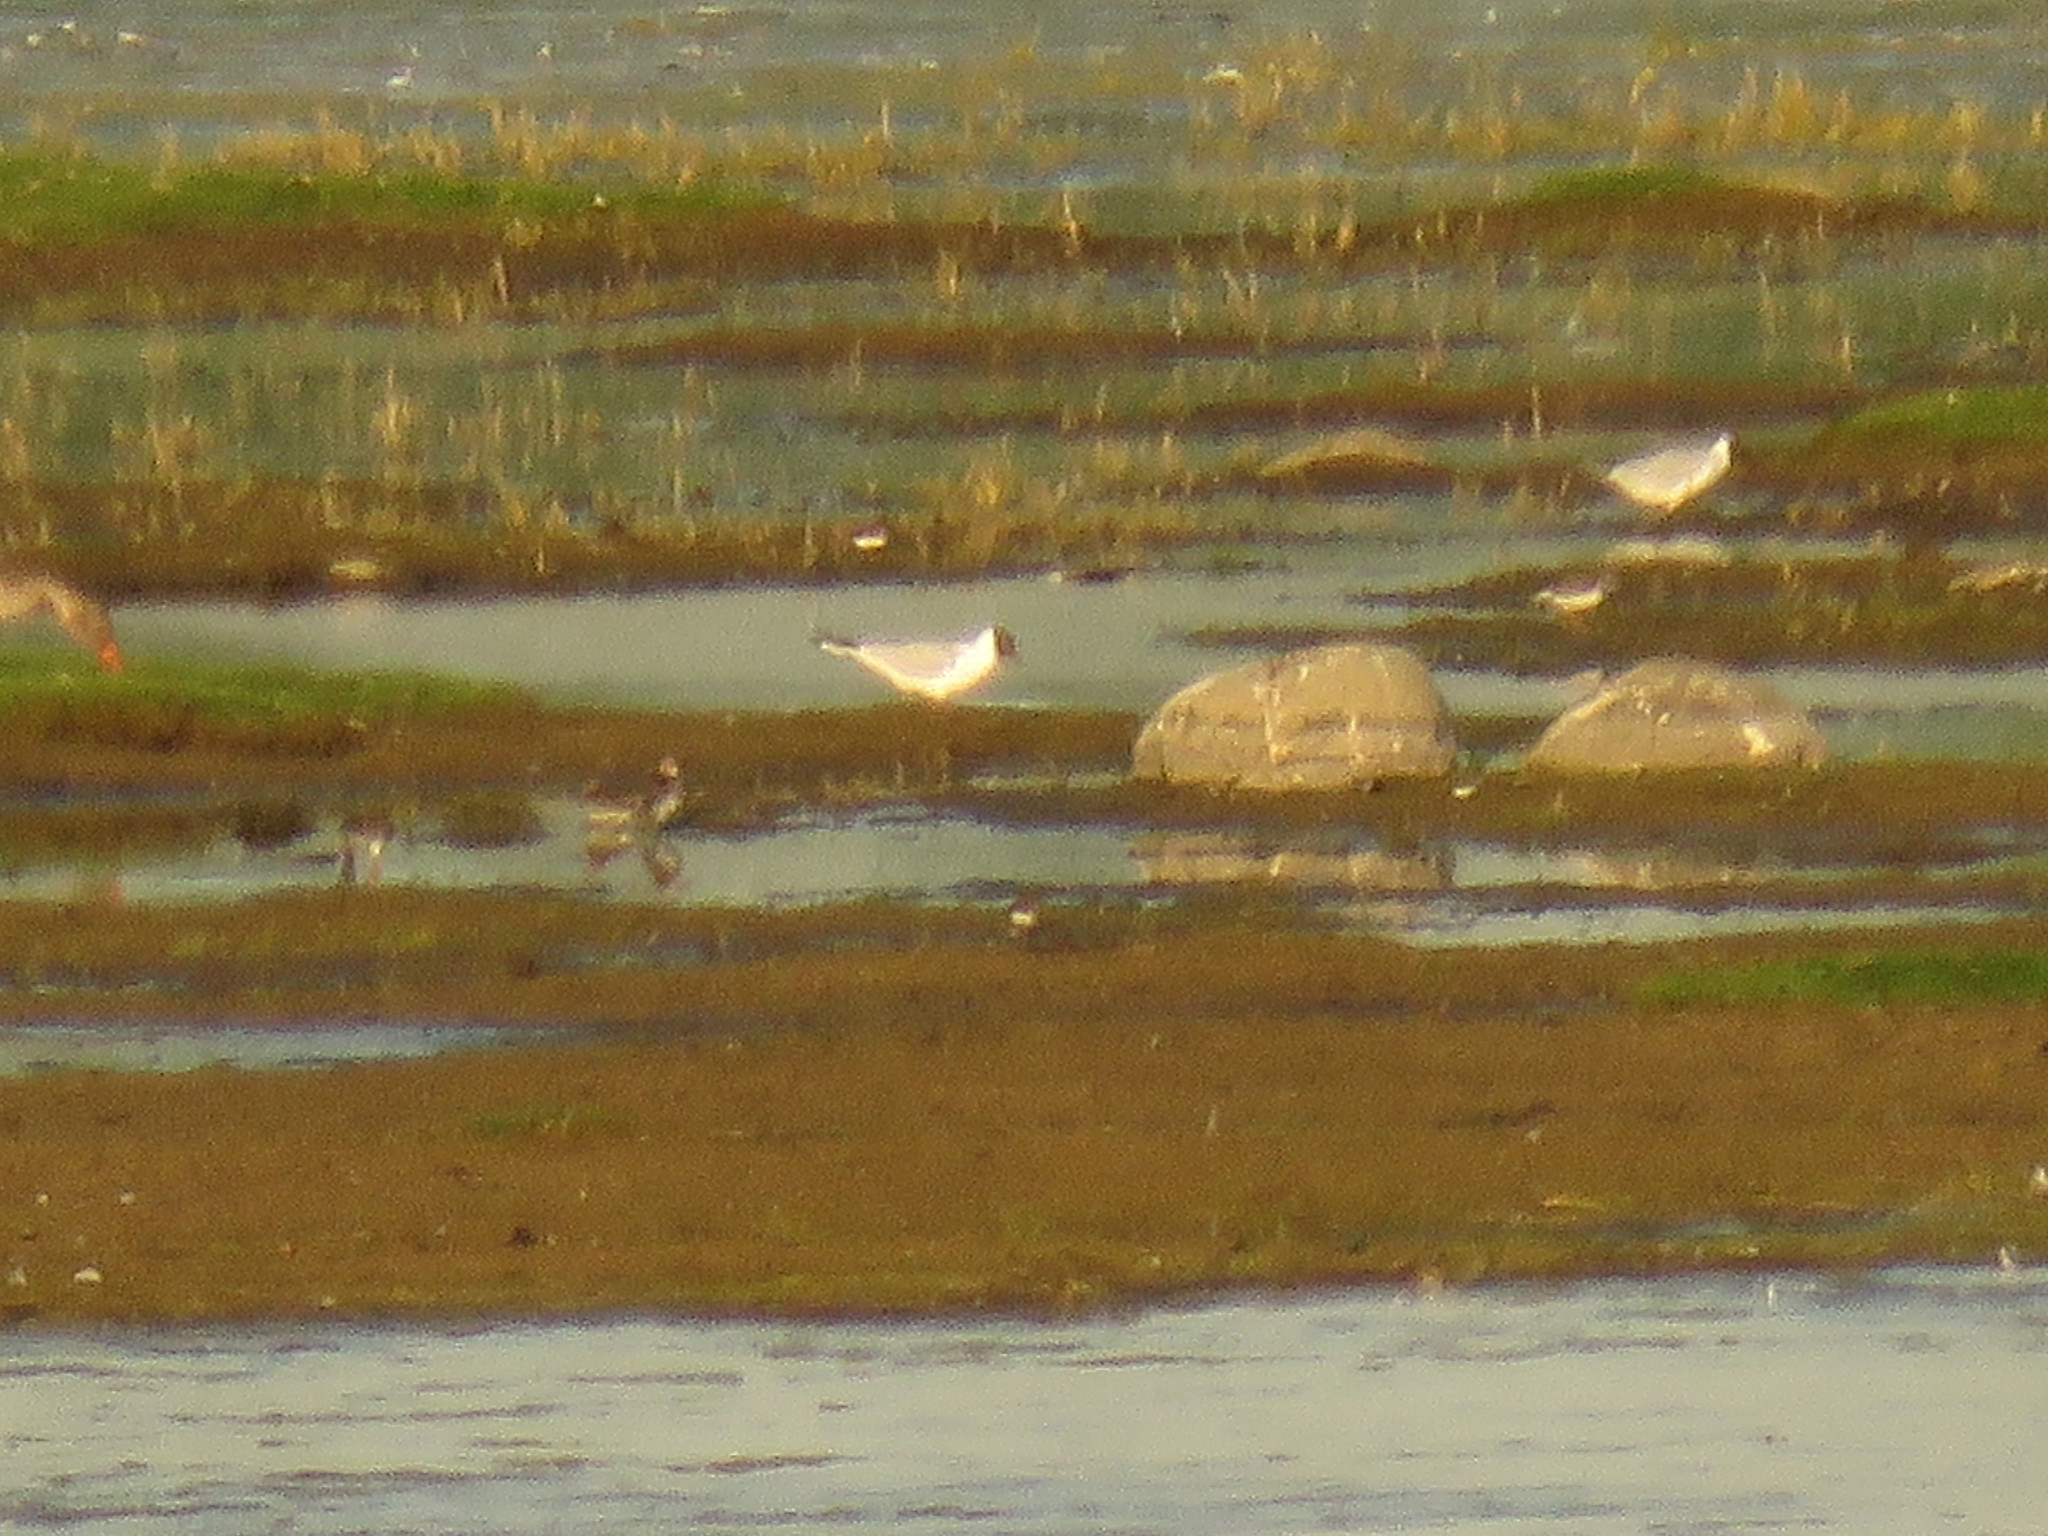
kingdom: Animalia
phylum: Chordata
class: Aves
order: Charadriiformes
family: Laridae
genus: Chroicocephalus
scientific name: Chroicocephalus ridibundus
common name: Black-headed gull
